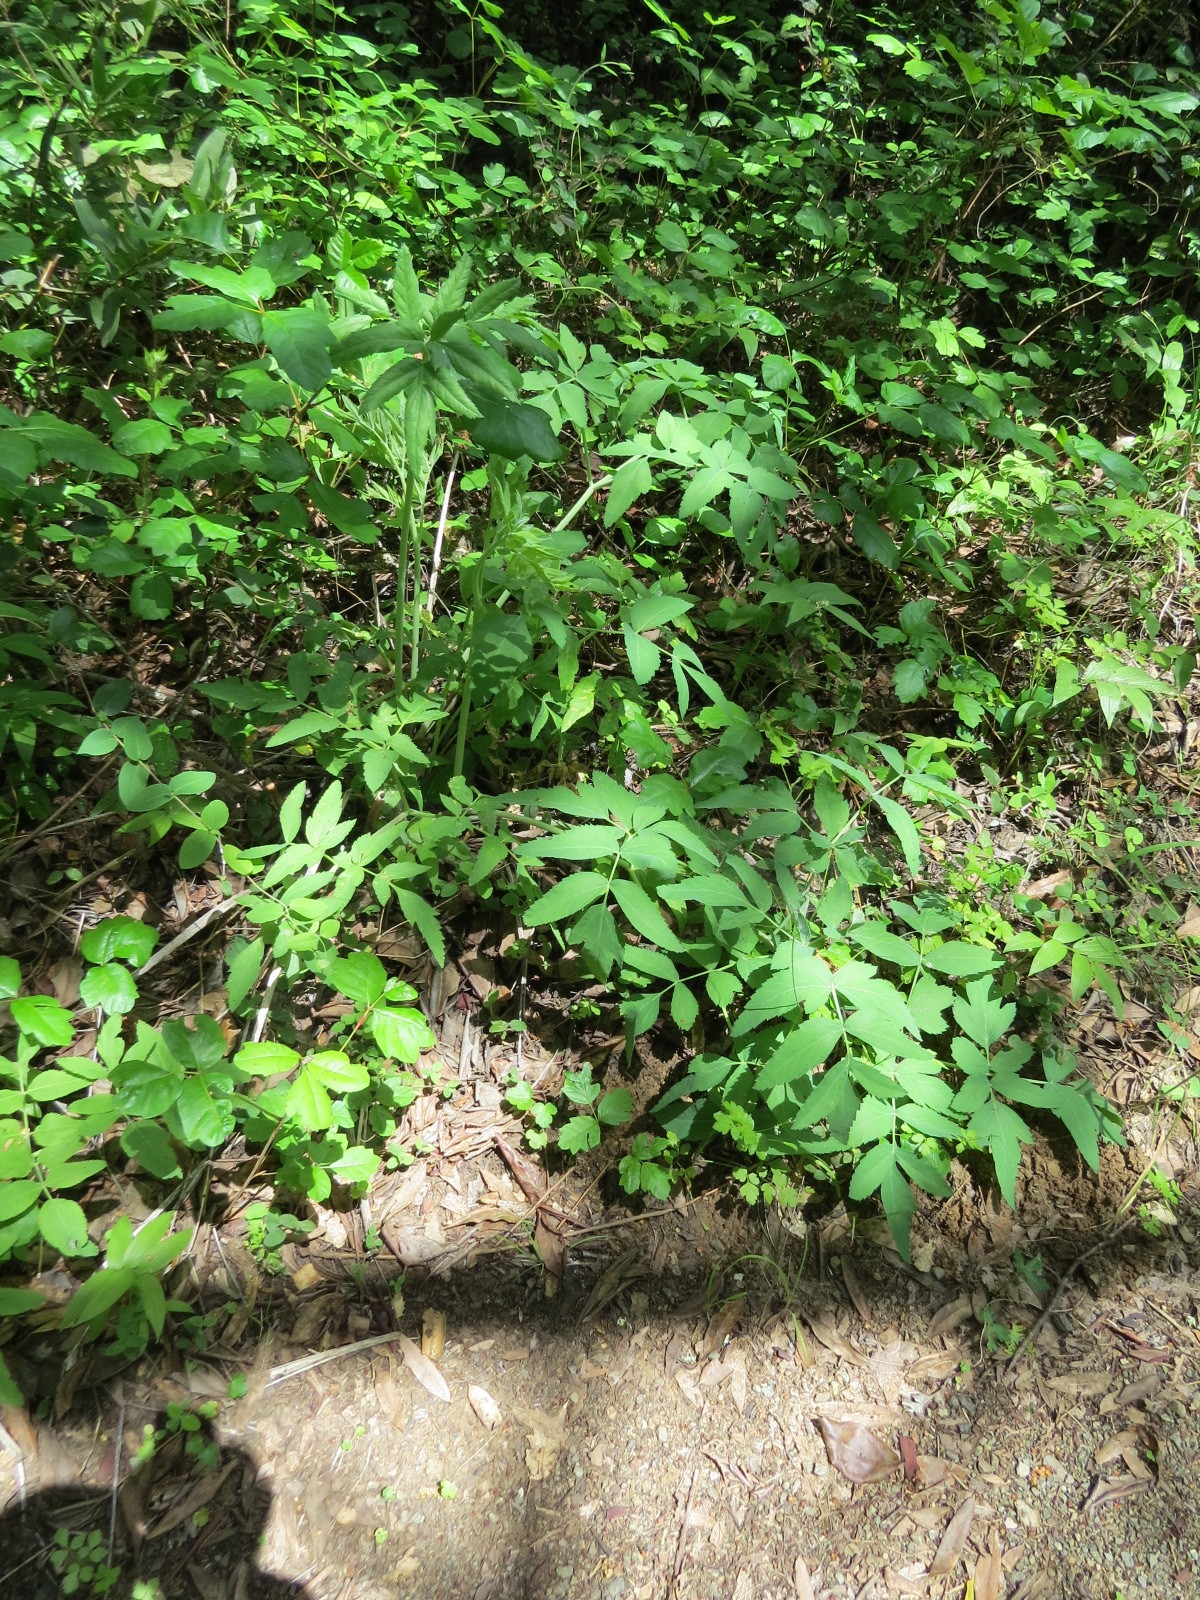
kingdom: Plantae
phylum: Tracheophyta
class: Magnoliopsida
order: Apiales
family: Apiaceae
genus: Angelica
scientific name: Angelica tomentosa
